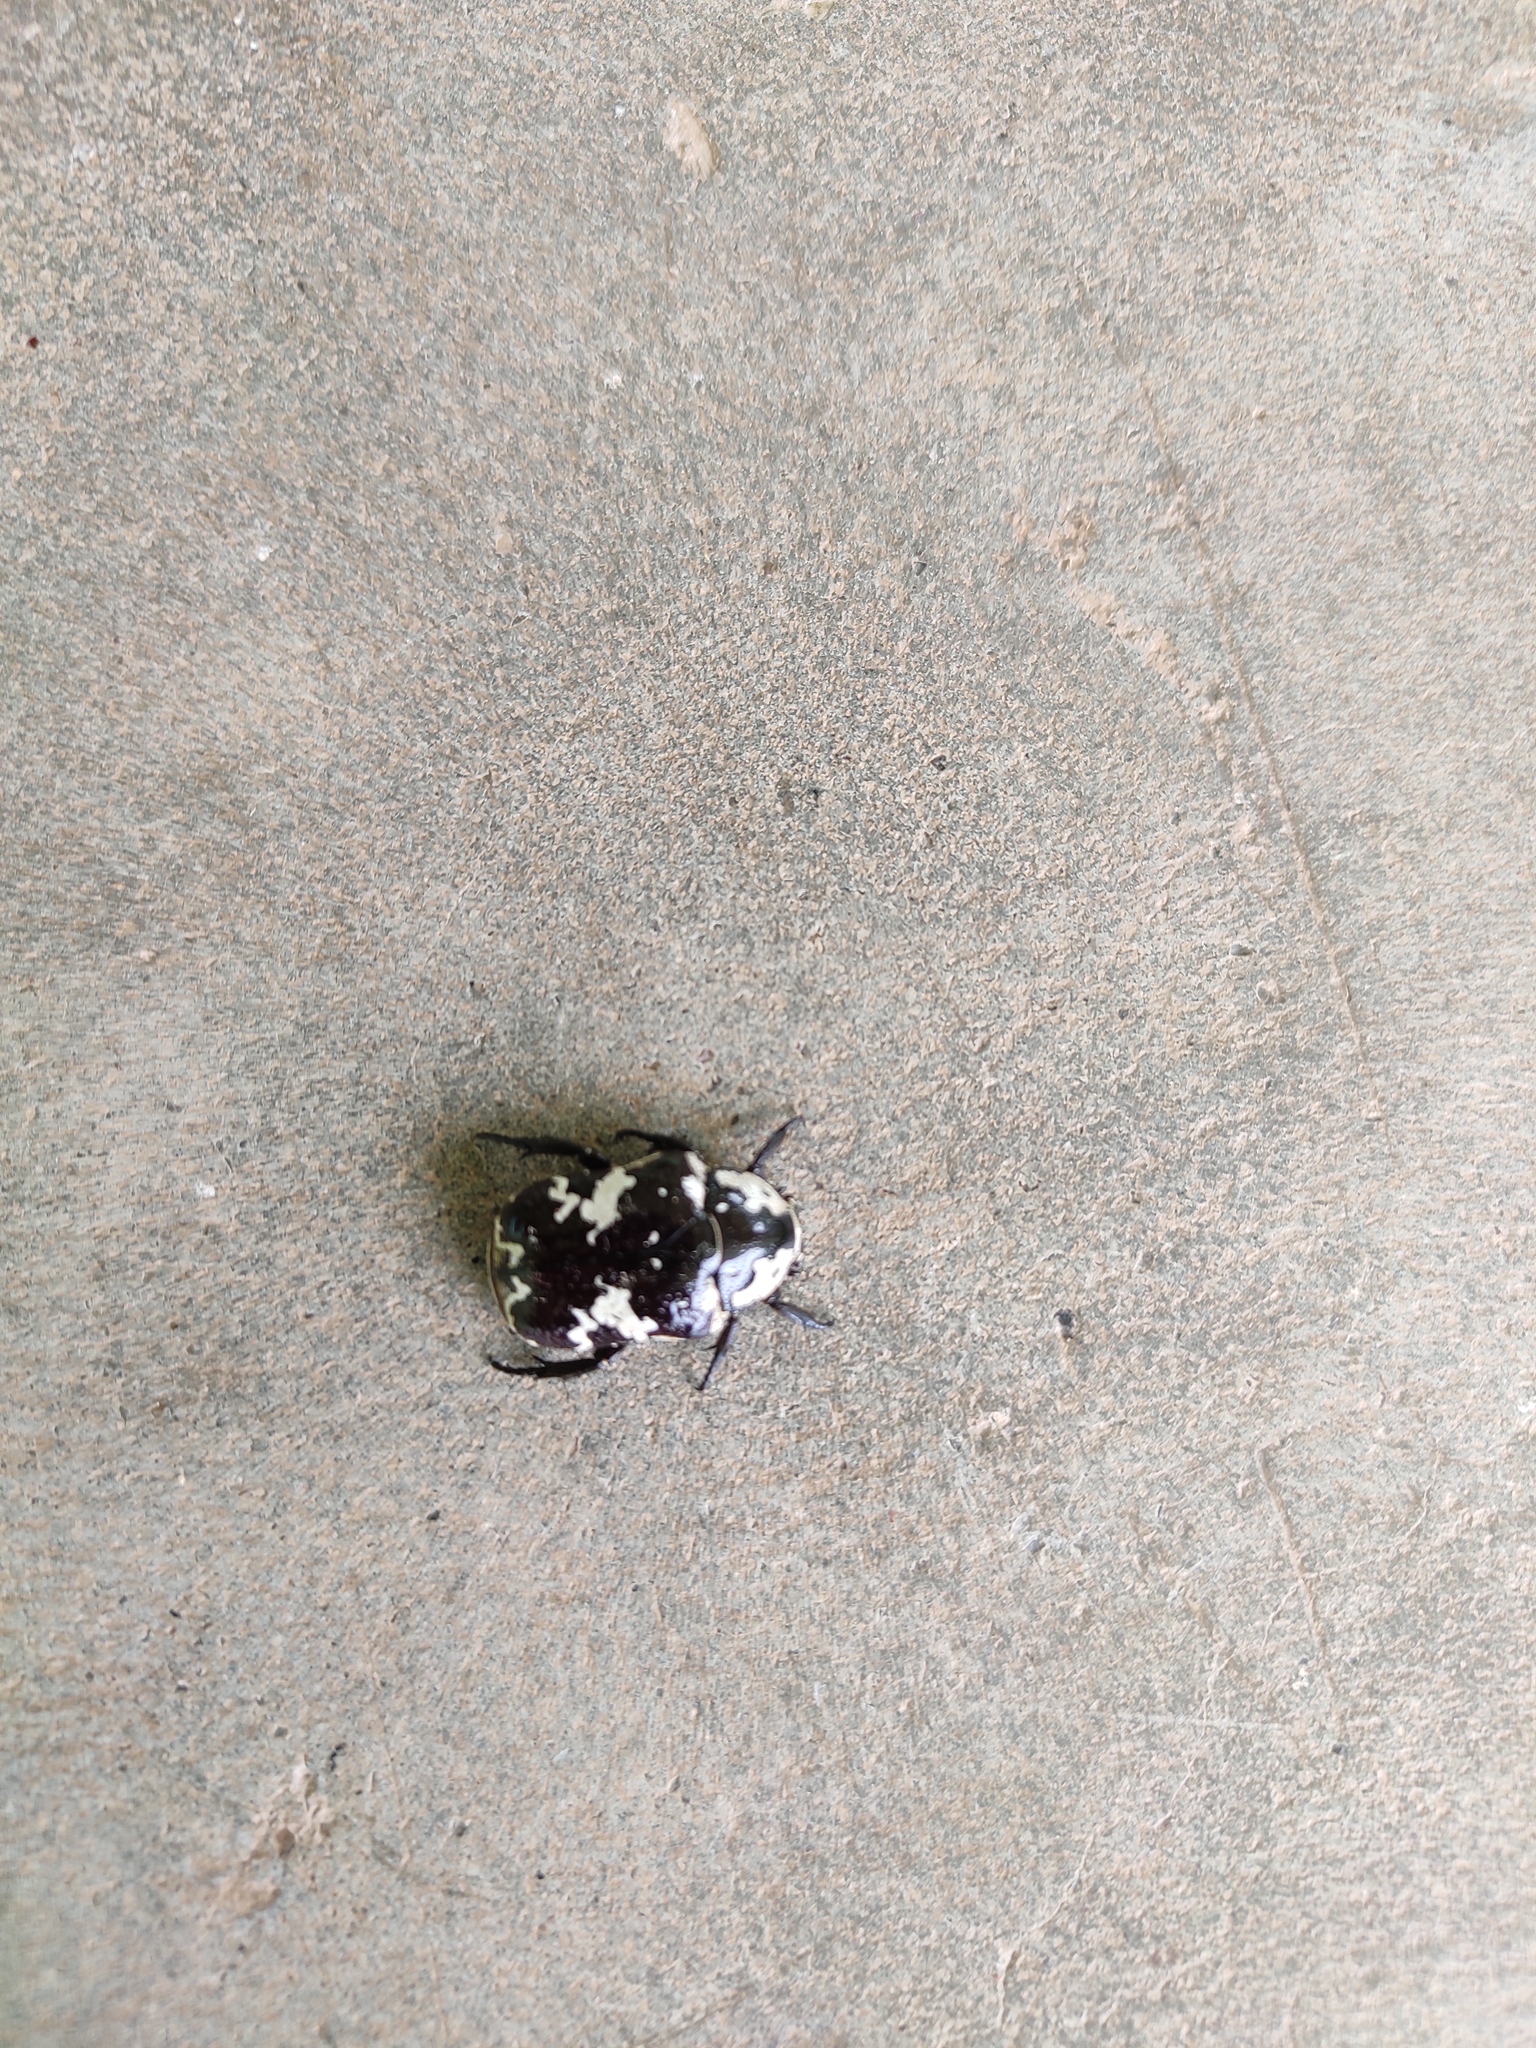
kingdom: Animalia
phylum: Arthropoda
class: Insecta
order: Coleoptera
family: Scarabaeidae
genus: Protaetia
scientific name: Protaetia aurichalcea
